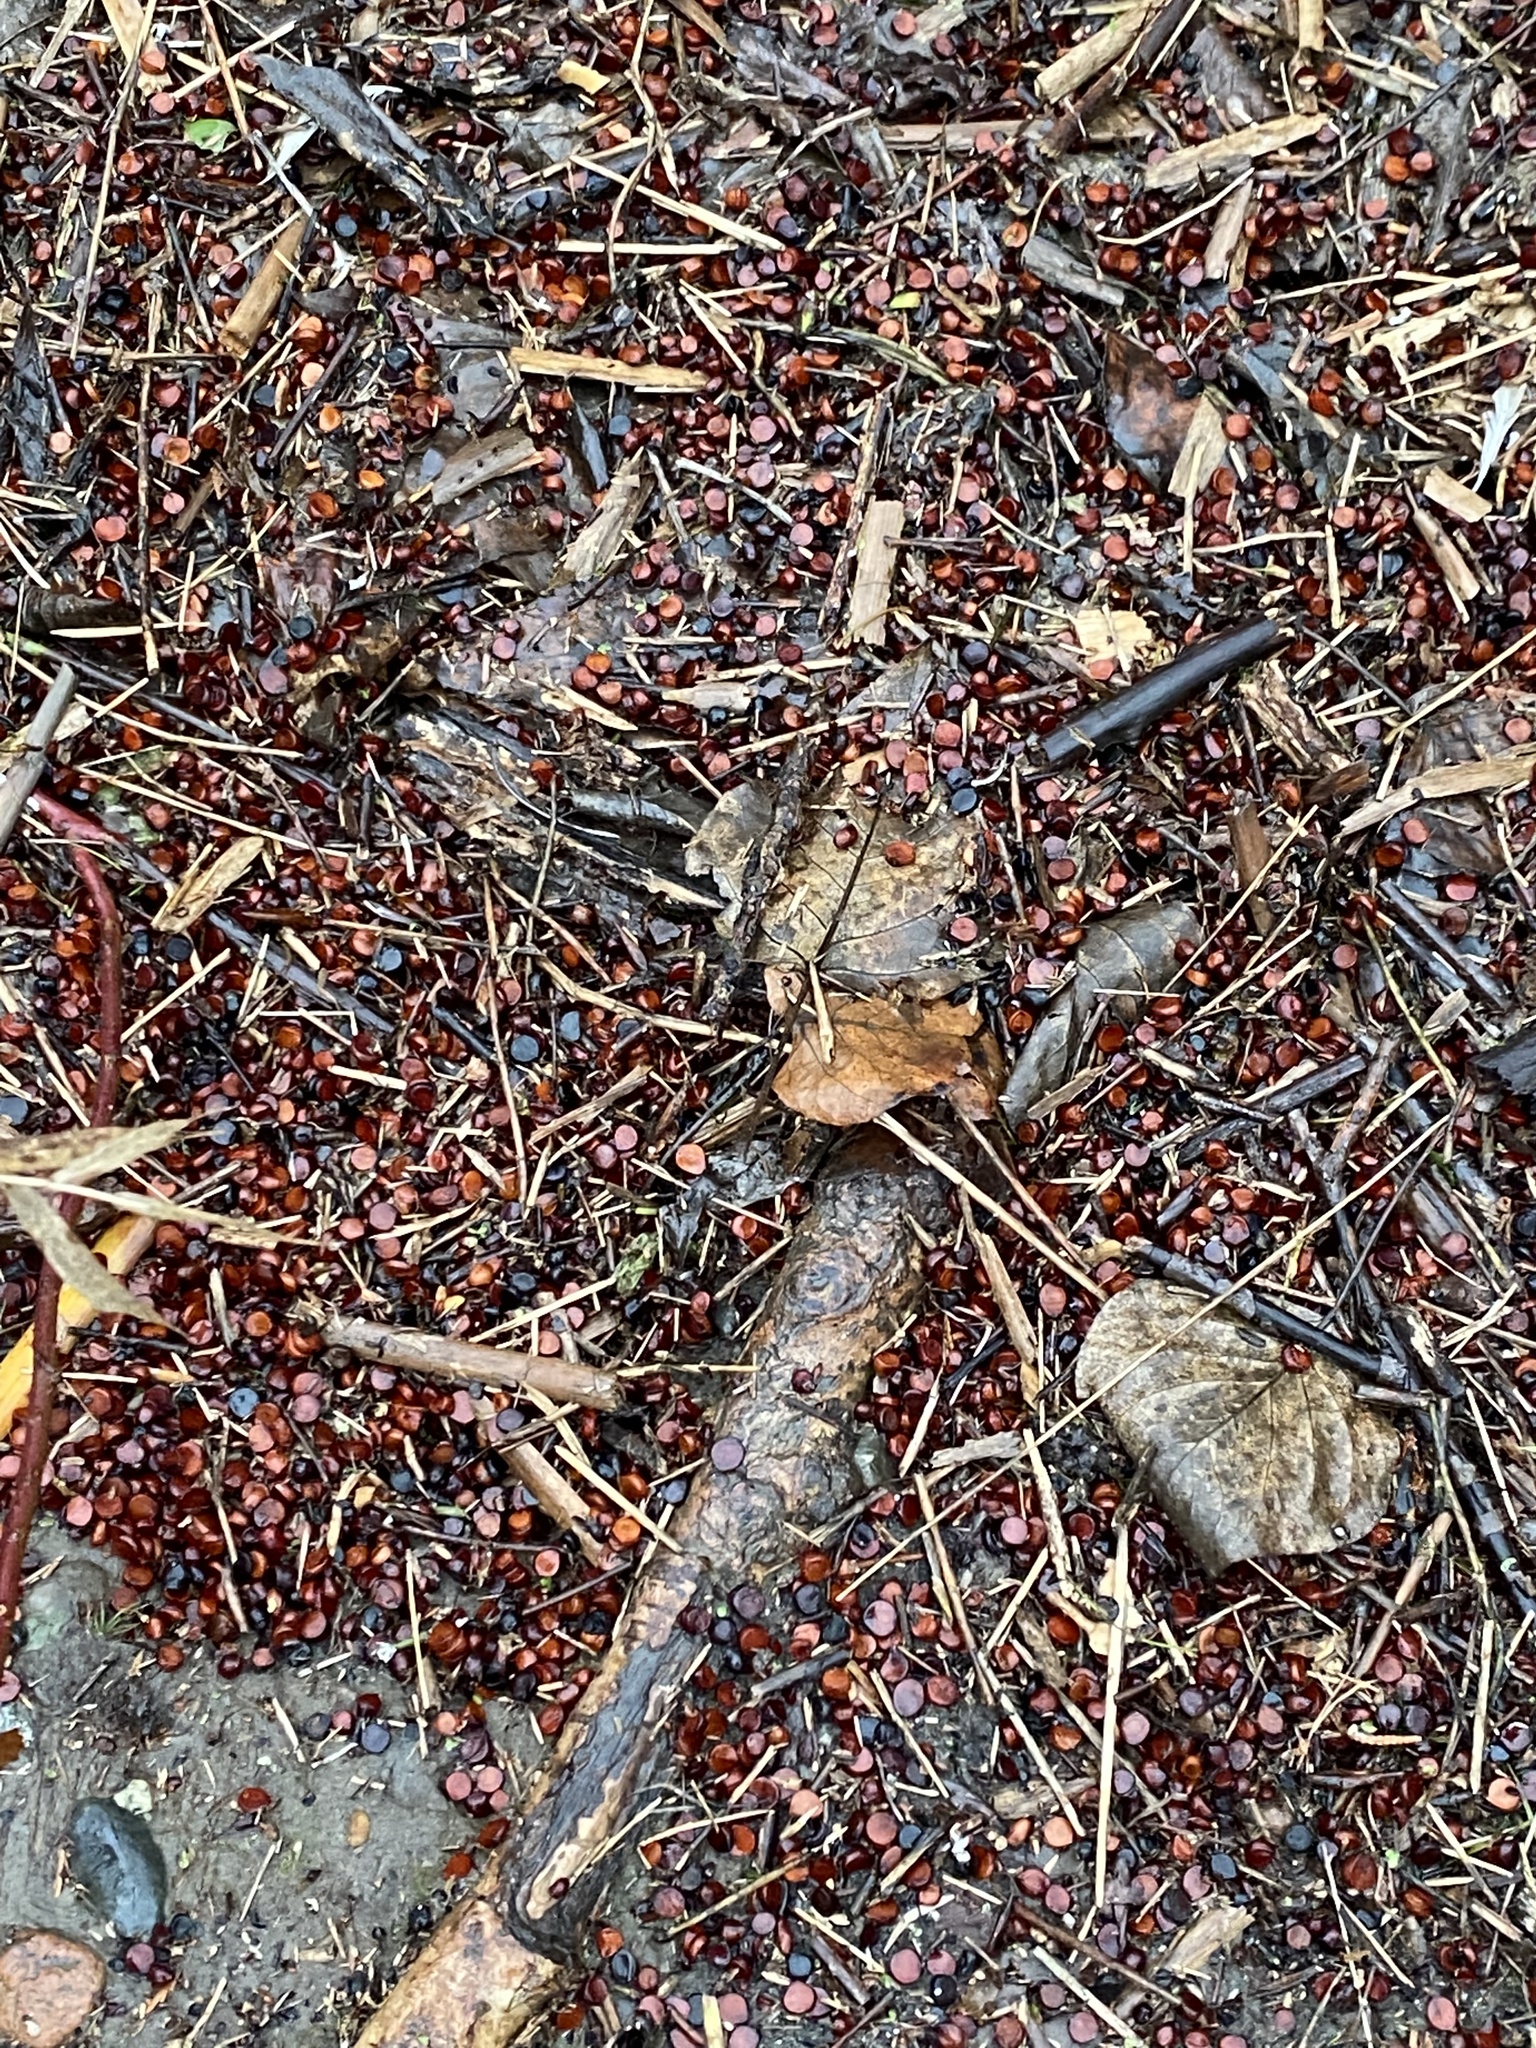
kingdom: Plantae
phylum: Tracheophyta
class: Liliopsida
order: Asparagales
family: Iridaceae
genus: Iris
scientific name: Iris pseudacorus
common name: Yellow flag
